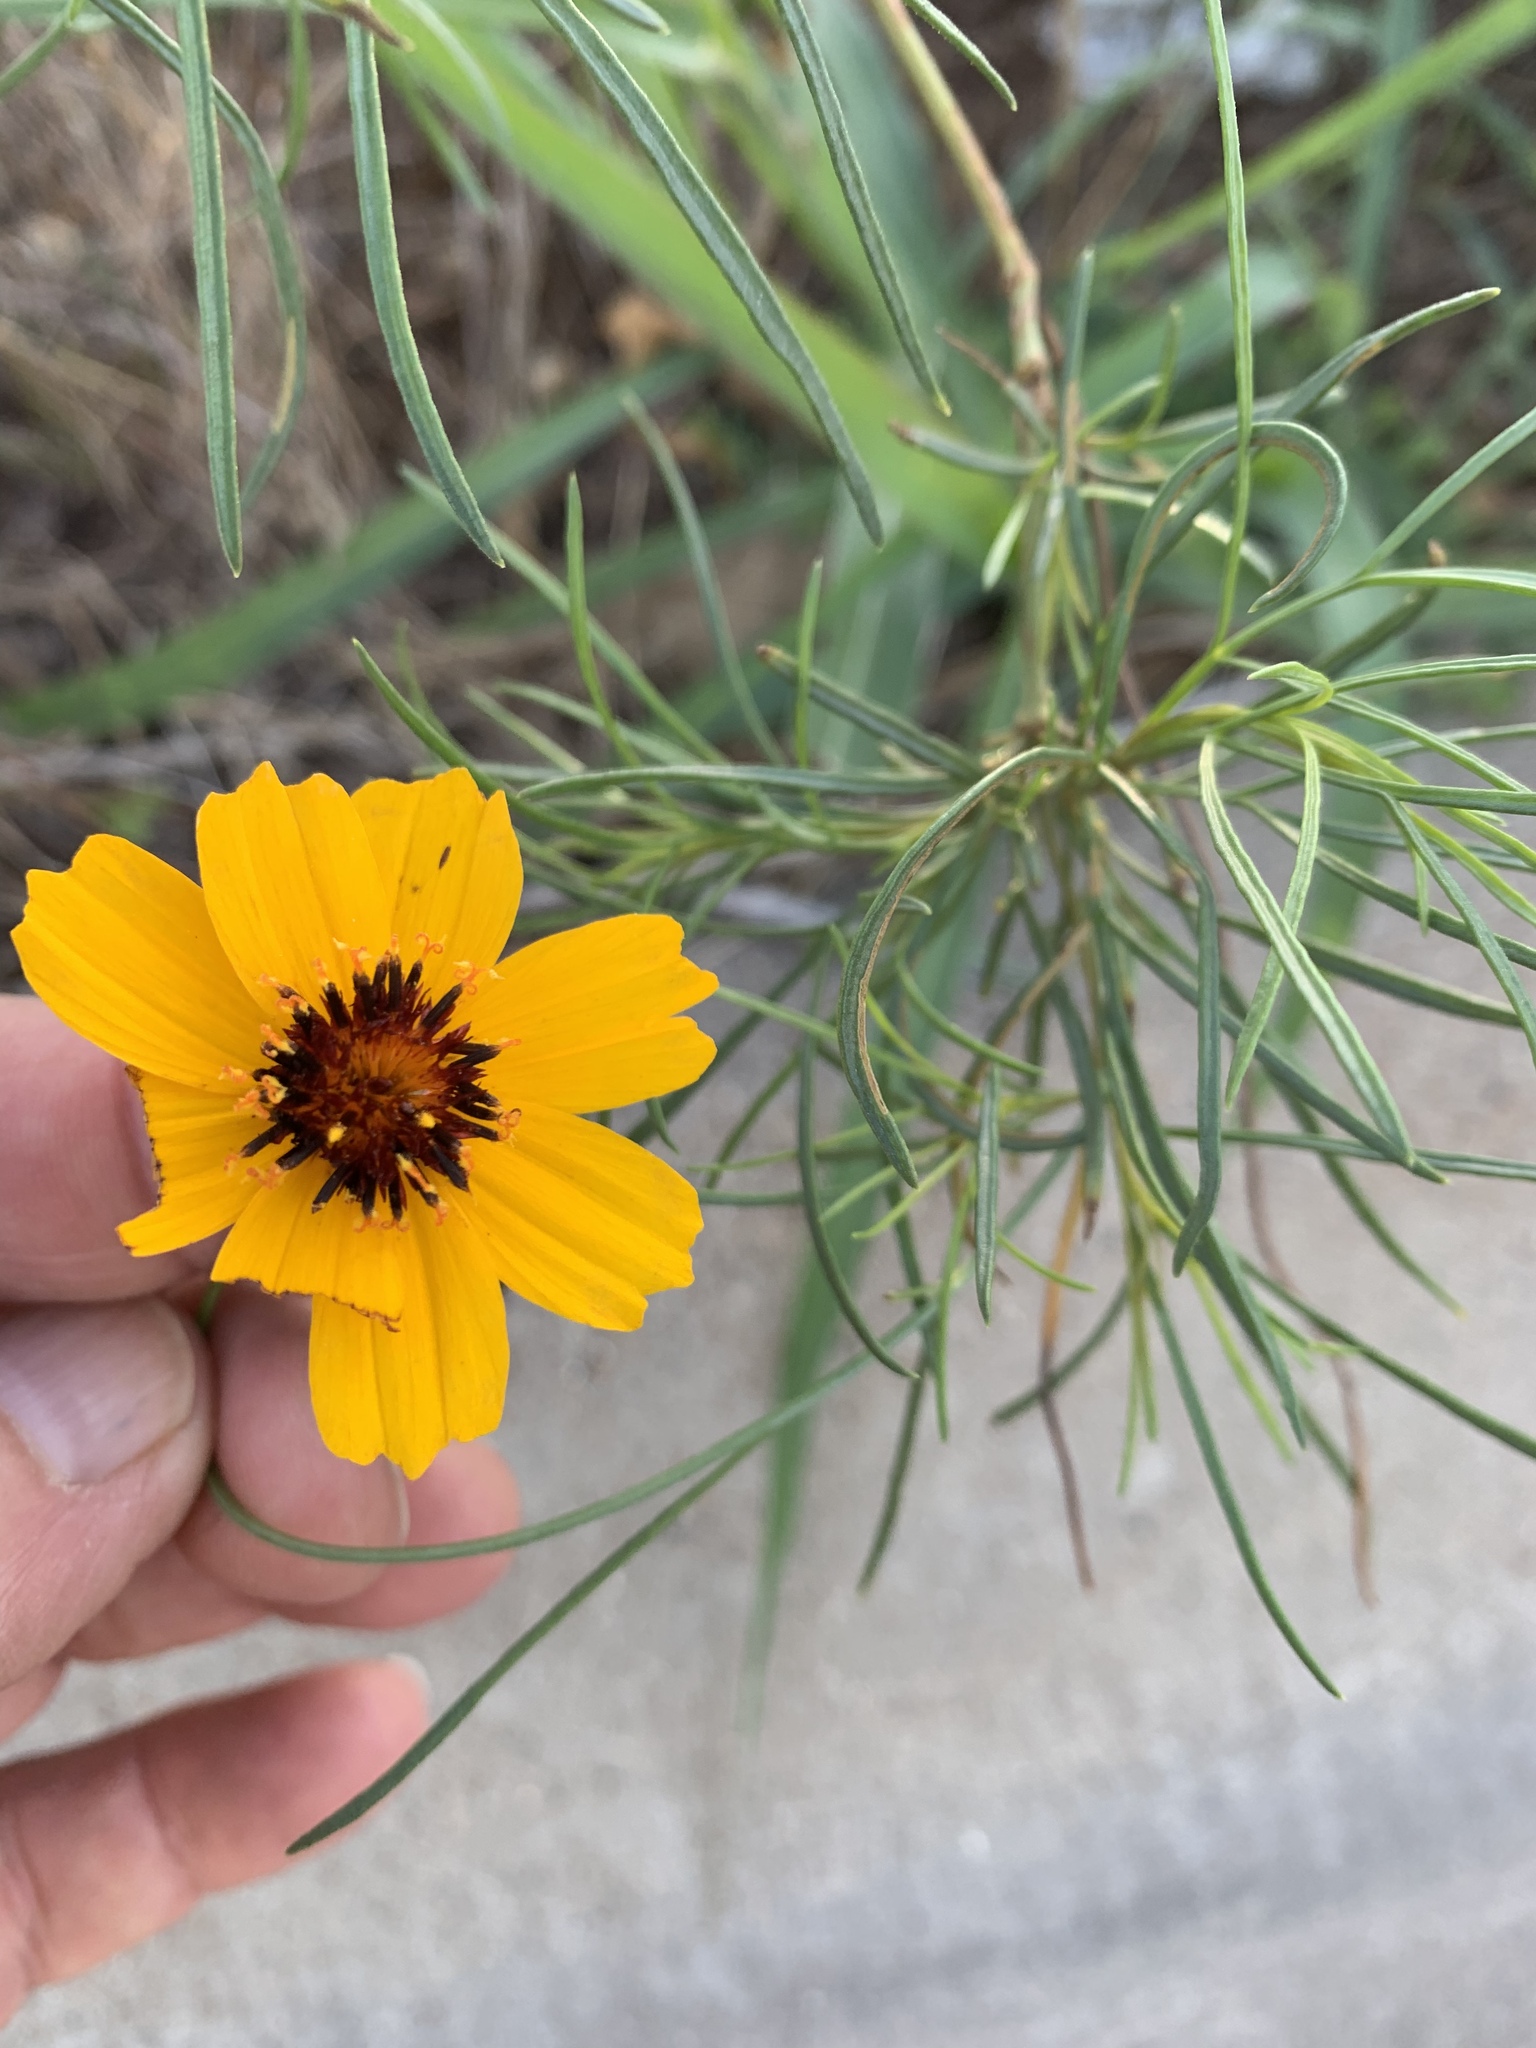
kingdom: Plantae
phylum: Tracheophyta
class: Magnoliopsida
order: Asterales
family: Asteraceae
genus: Thelesperma
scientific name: Thelesperma filifolium
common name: Stiff greenthread
